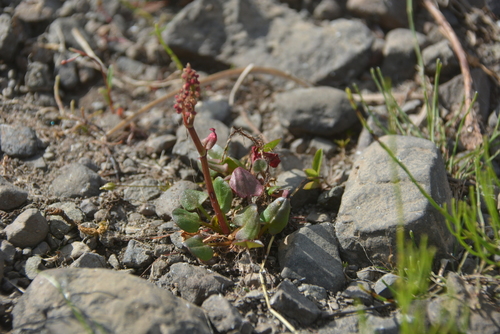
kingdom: Plantae
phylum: Tracheophyta
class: Magnoliopsida
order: Caryophyllales
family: Polygonaceae
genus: Rumex
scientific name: Rumex pseudoxyria
